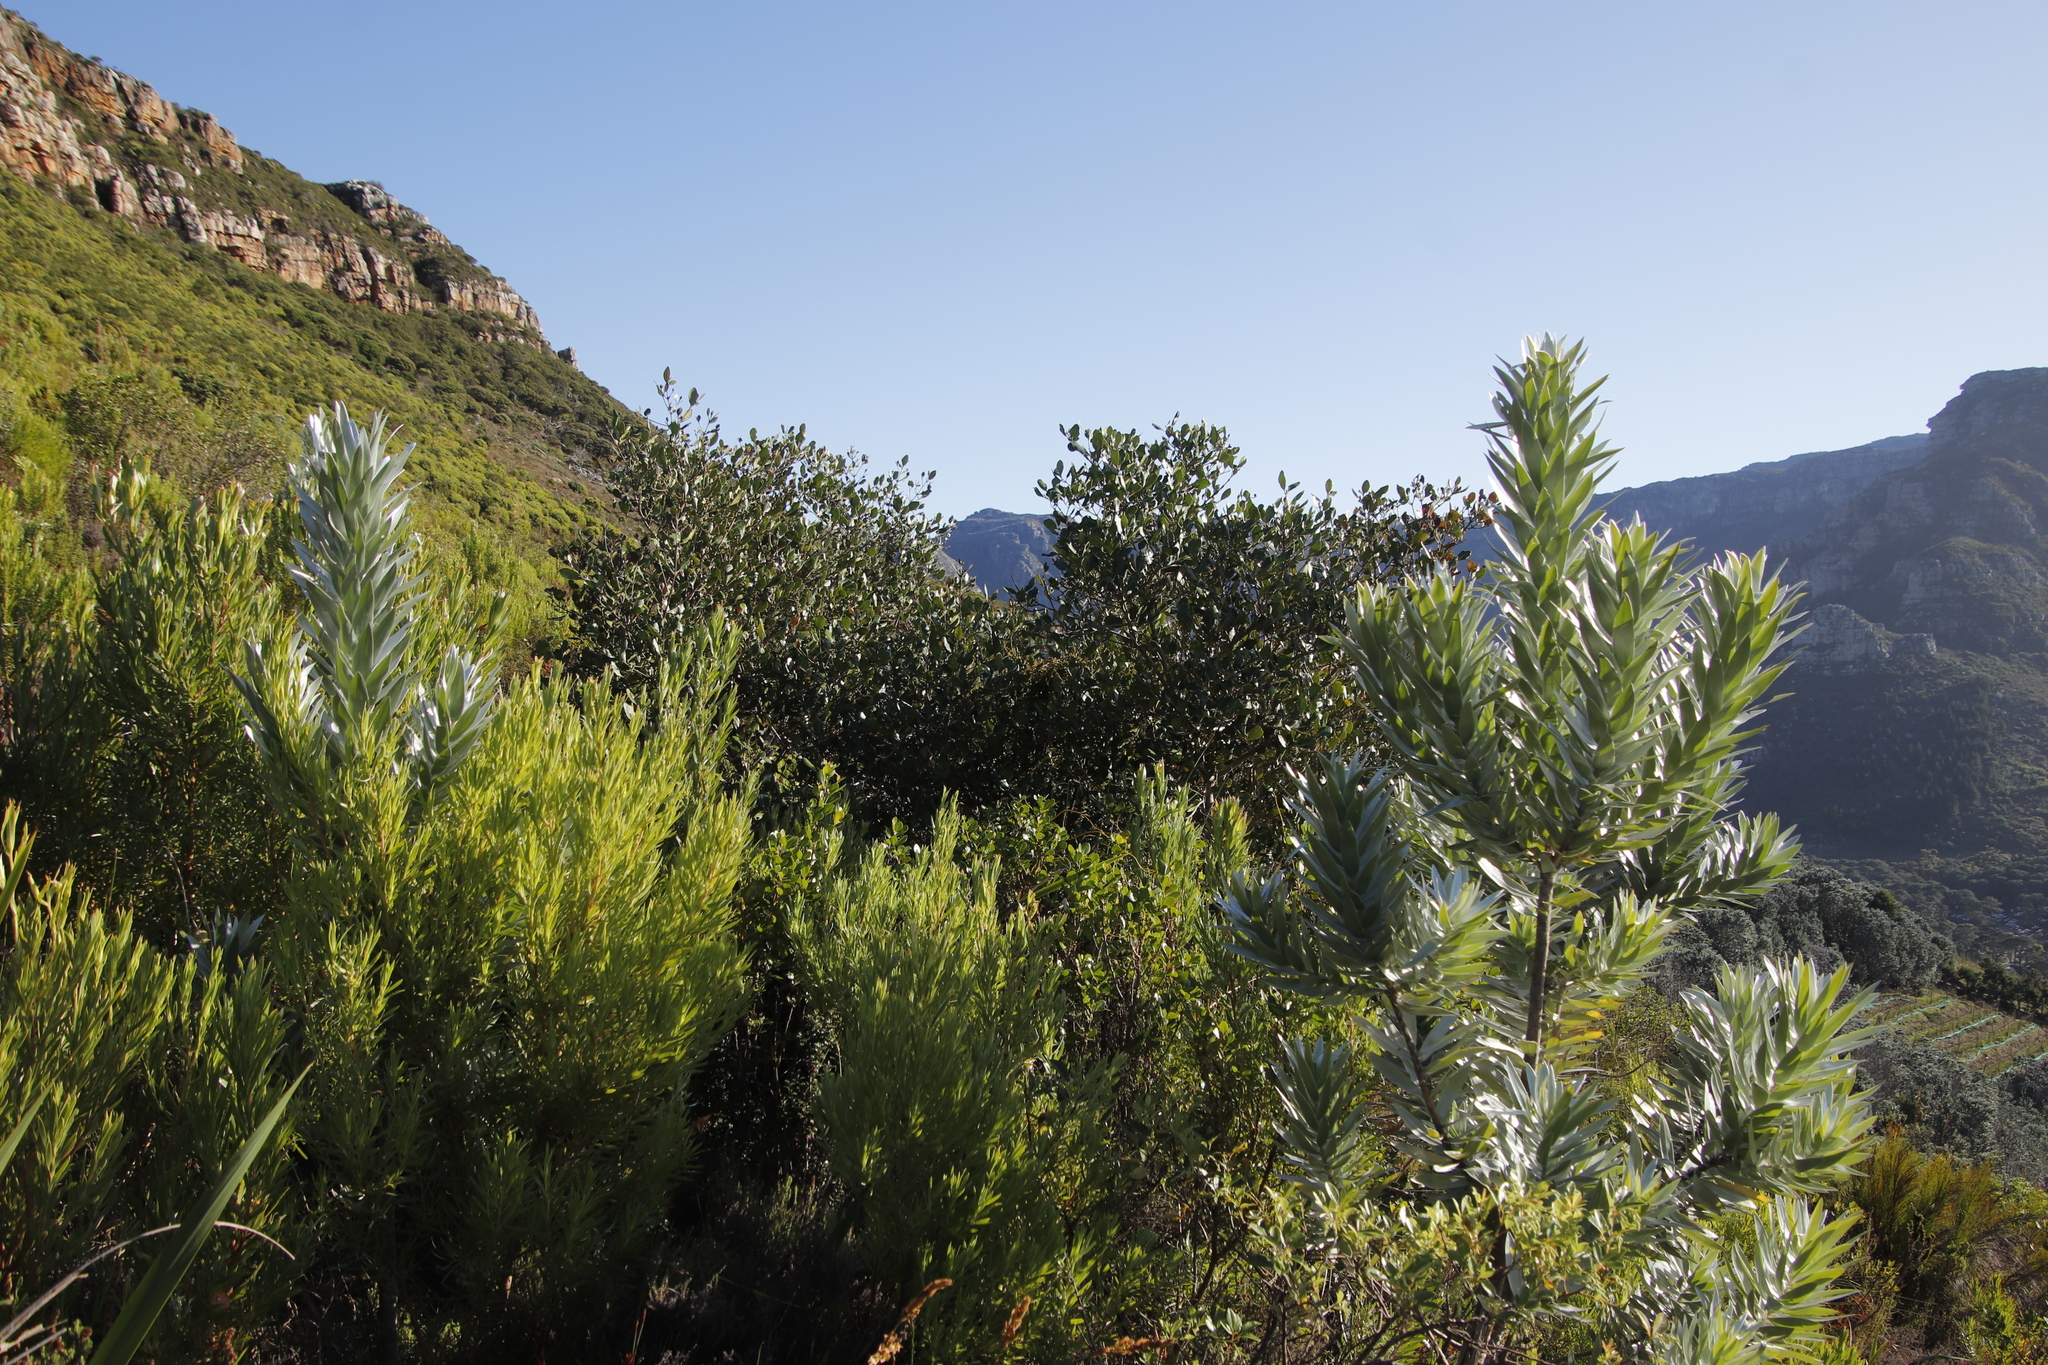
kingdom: Plantae
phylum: Tracheophyta
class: Magnoliopsida
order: Lamiales
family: Oleaceae
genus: Olea
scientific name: Olea capensis
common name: Black ironwood
